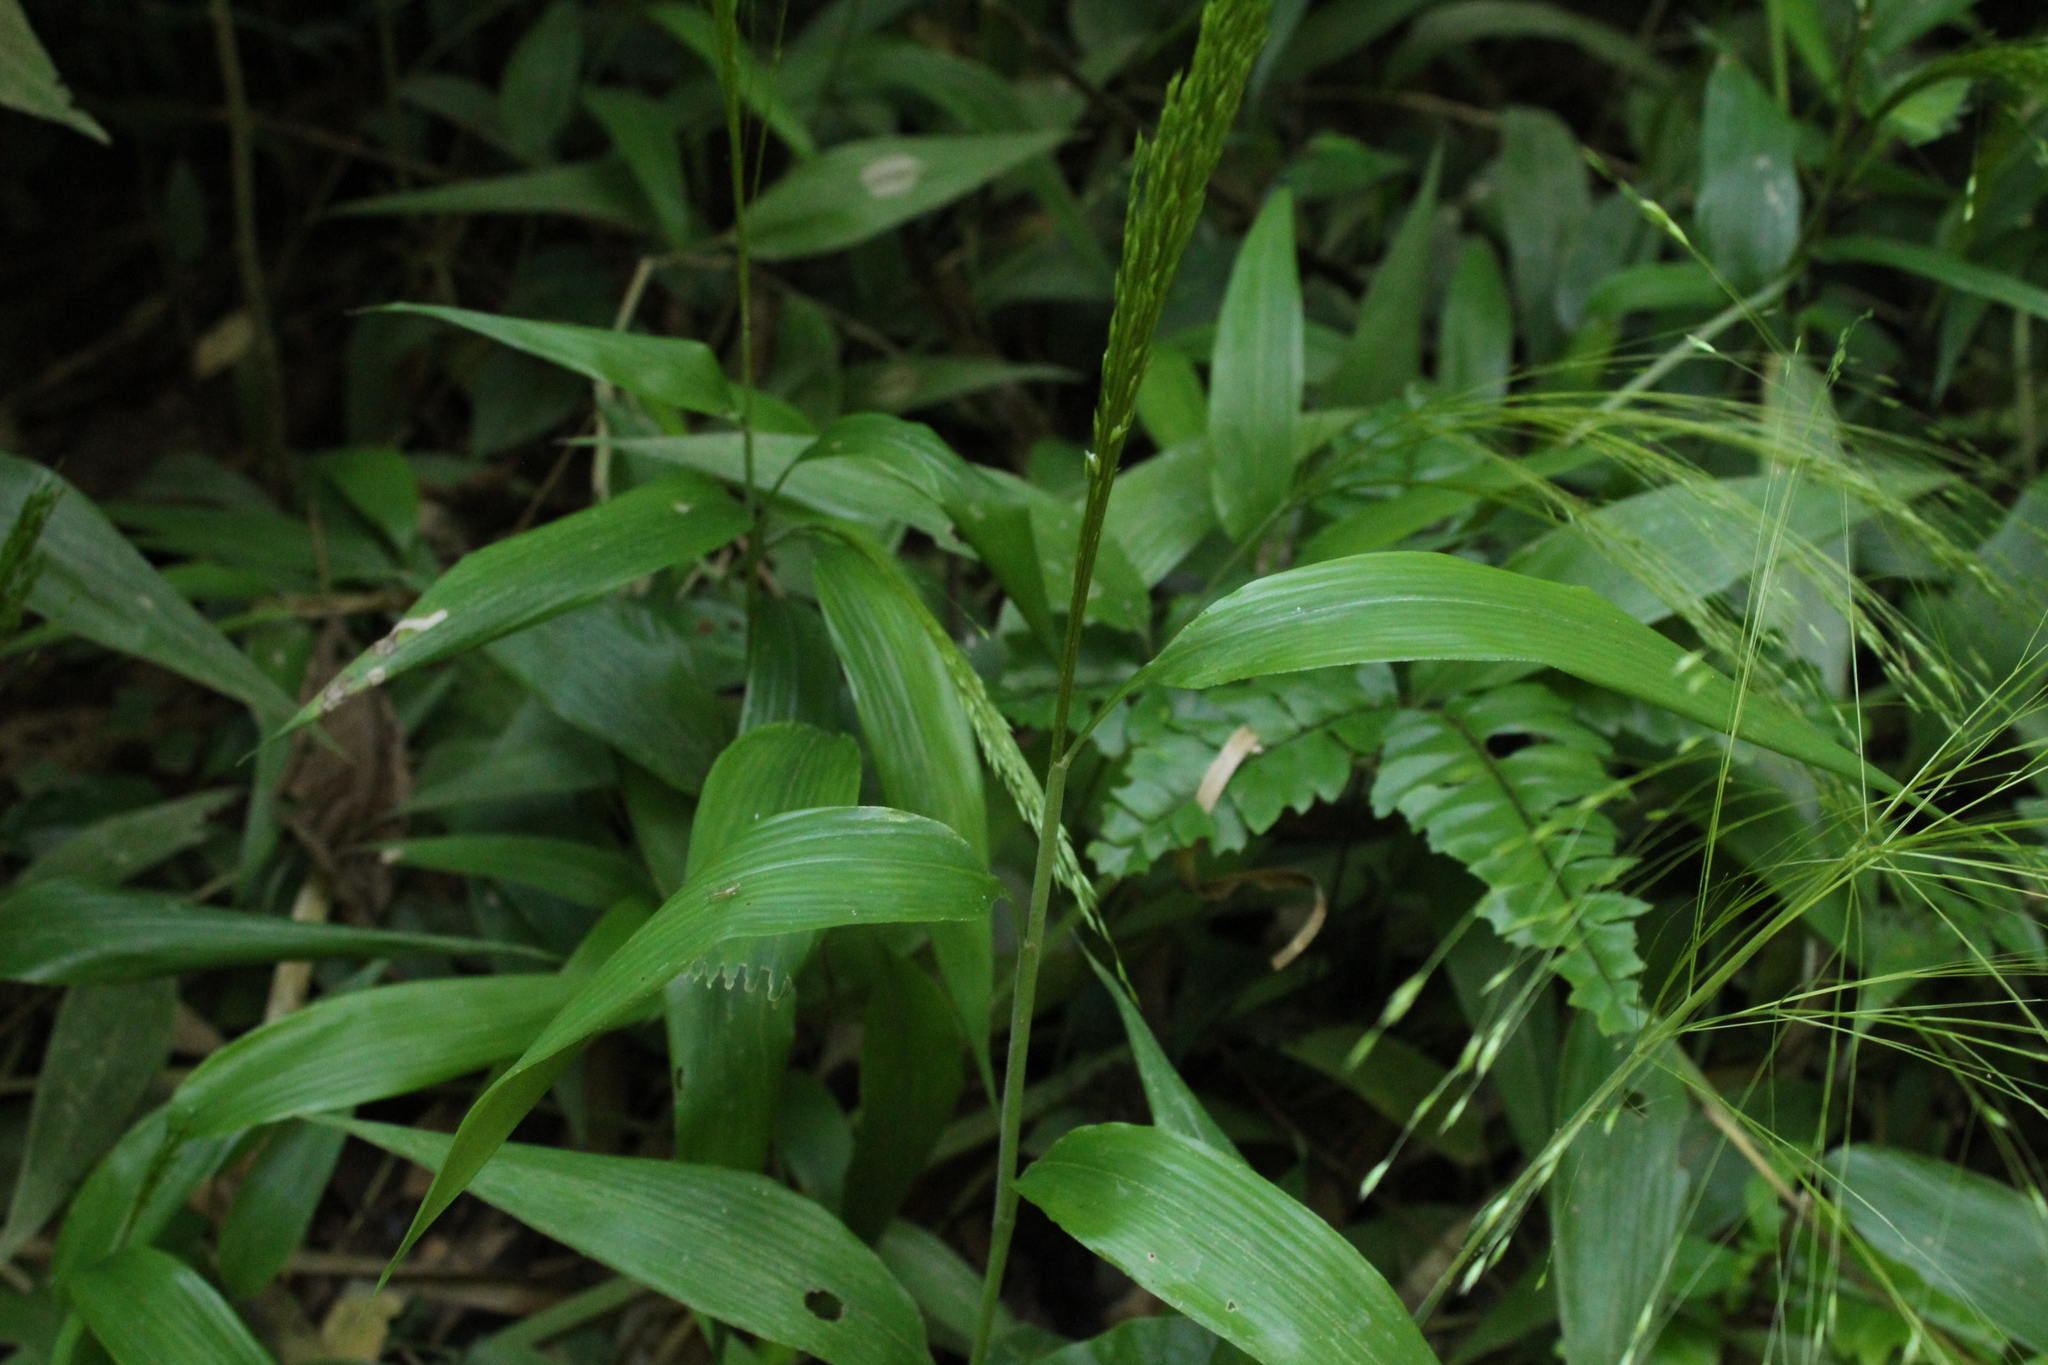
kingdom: Plantae
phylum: Tracheophyta
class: Liliopsida
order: Poales
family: Poaceae
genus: Orthoclada
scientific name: Orthoclada laxa
